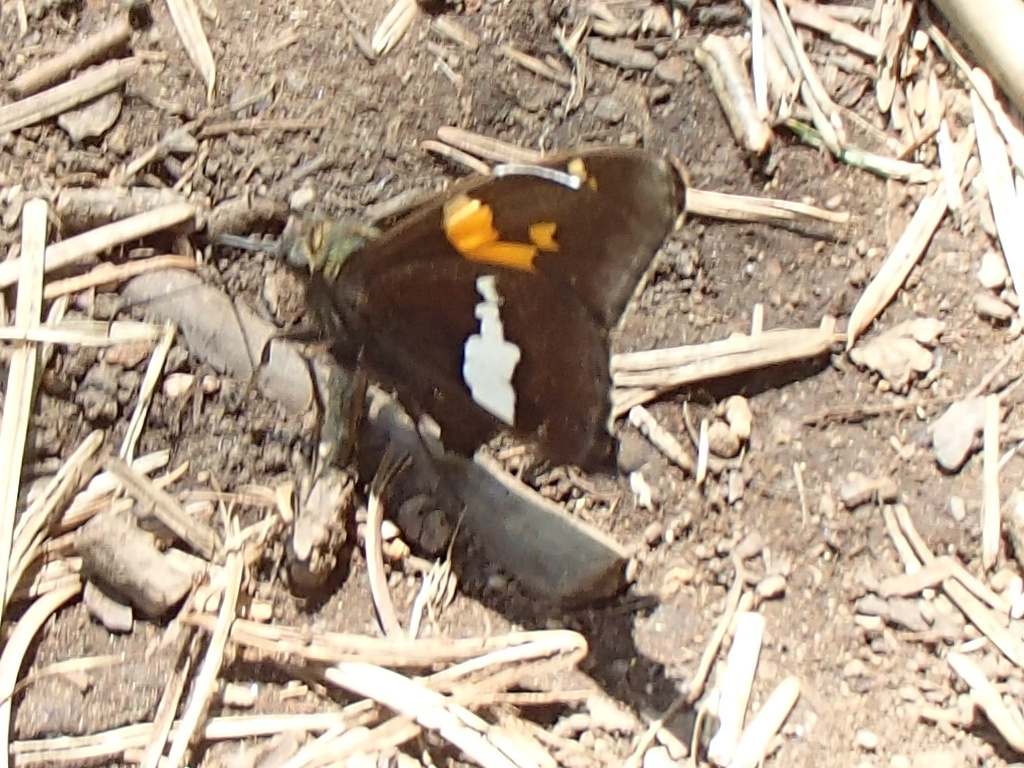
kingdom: Animalia
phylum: Arthropoda
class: Insecta
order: Lepidoptera
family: Hesperiidae
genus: Epargyreus
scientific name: Epargyreus clarus
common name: Silver-spotted skipper
